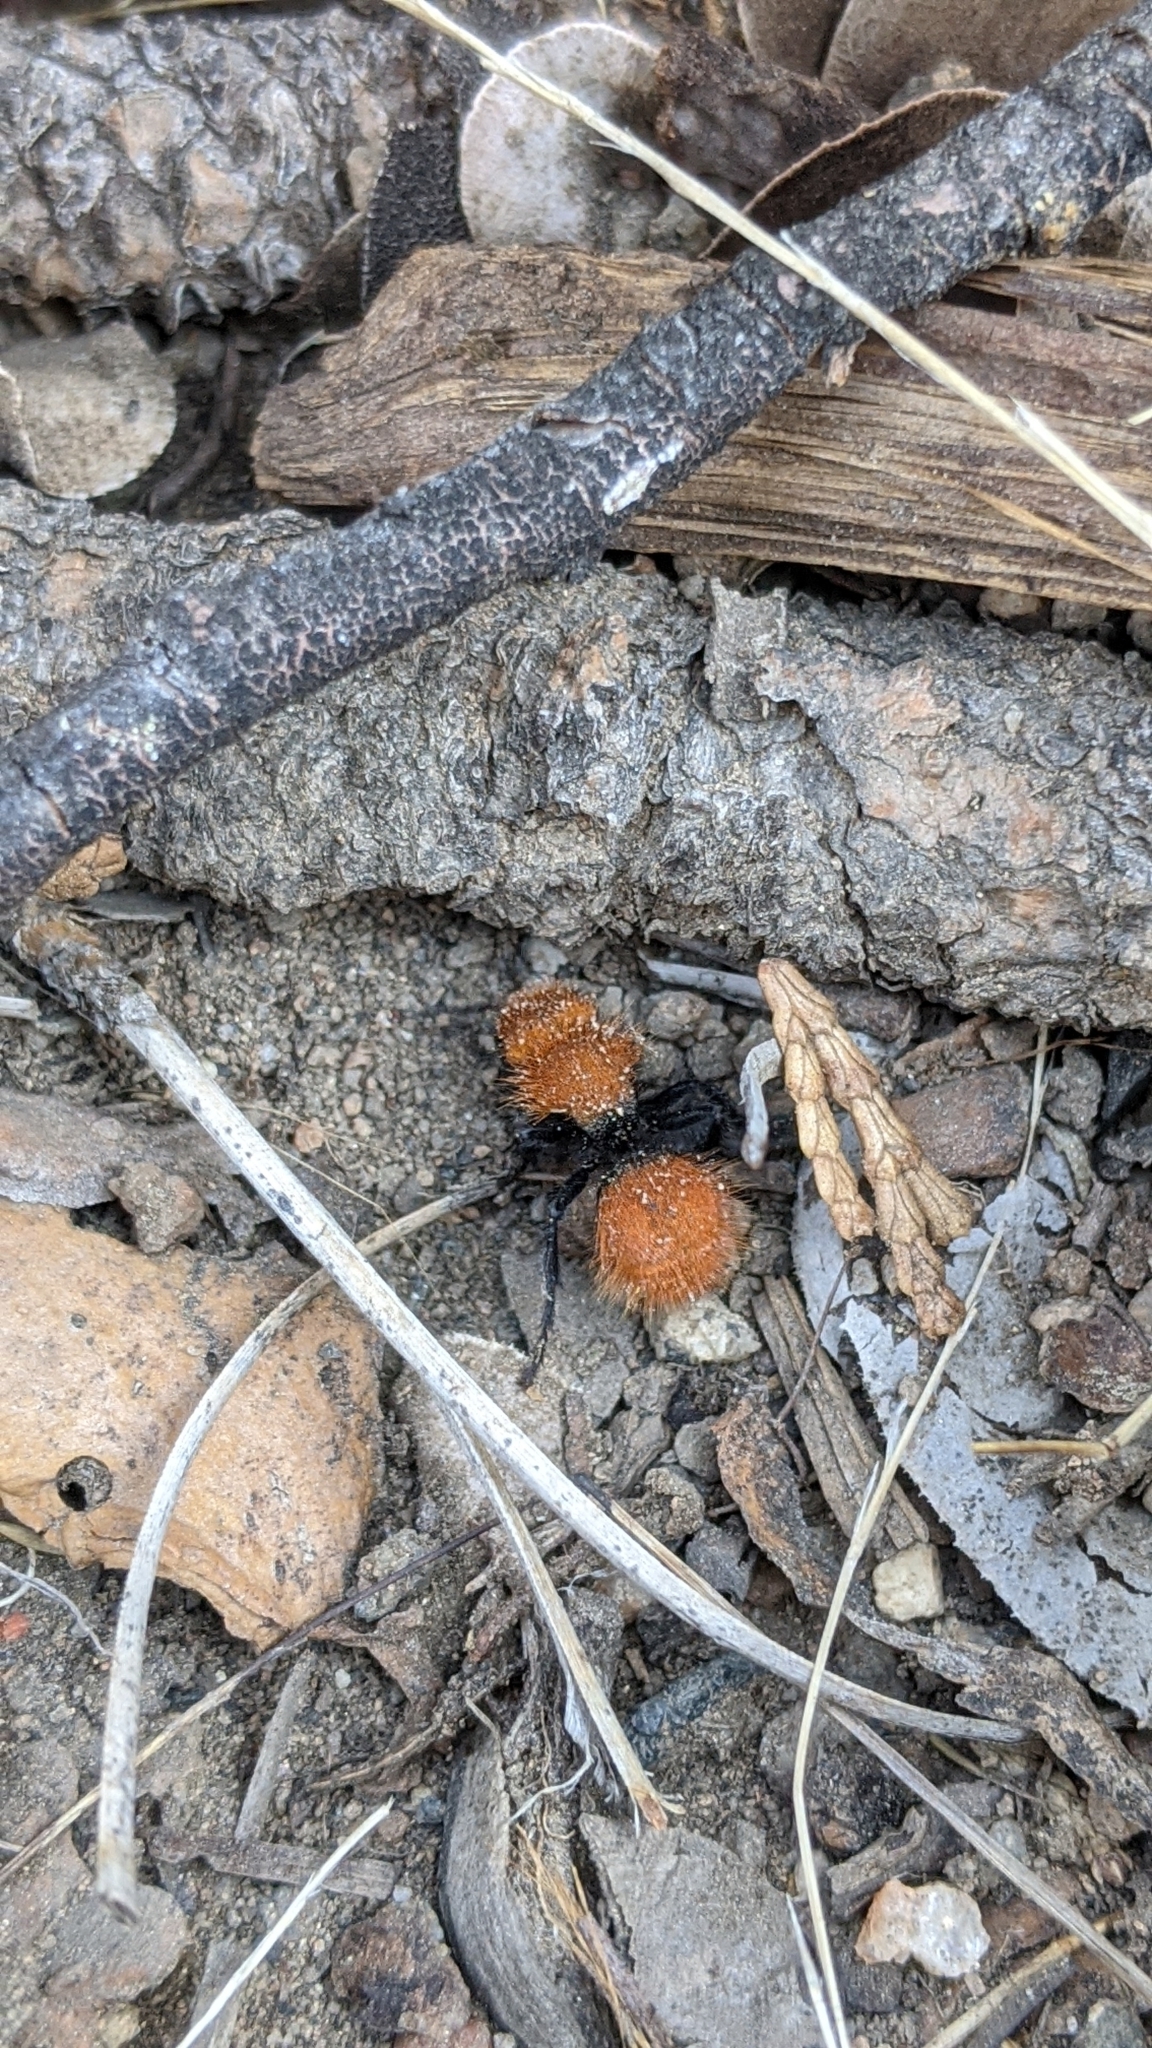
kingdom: Animalia
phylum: Arthropoda
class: Insecta
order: Hymenoptera
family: Mutillidae
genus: Dasymutilla
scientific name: Dasymutilla
